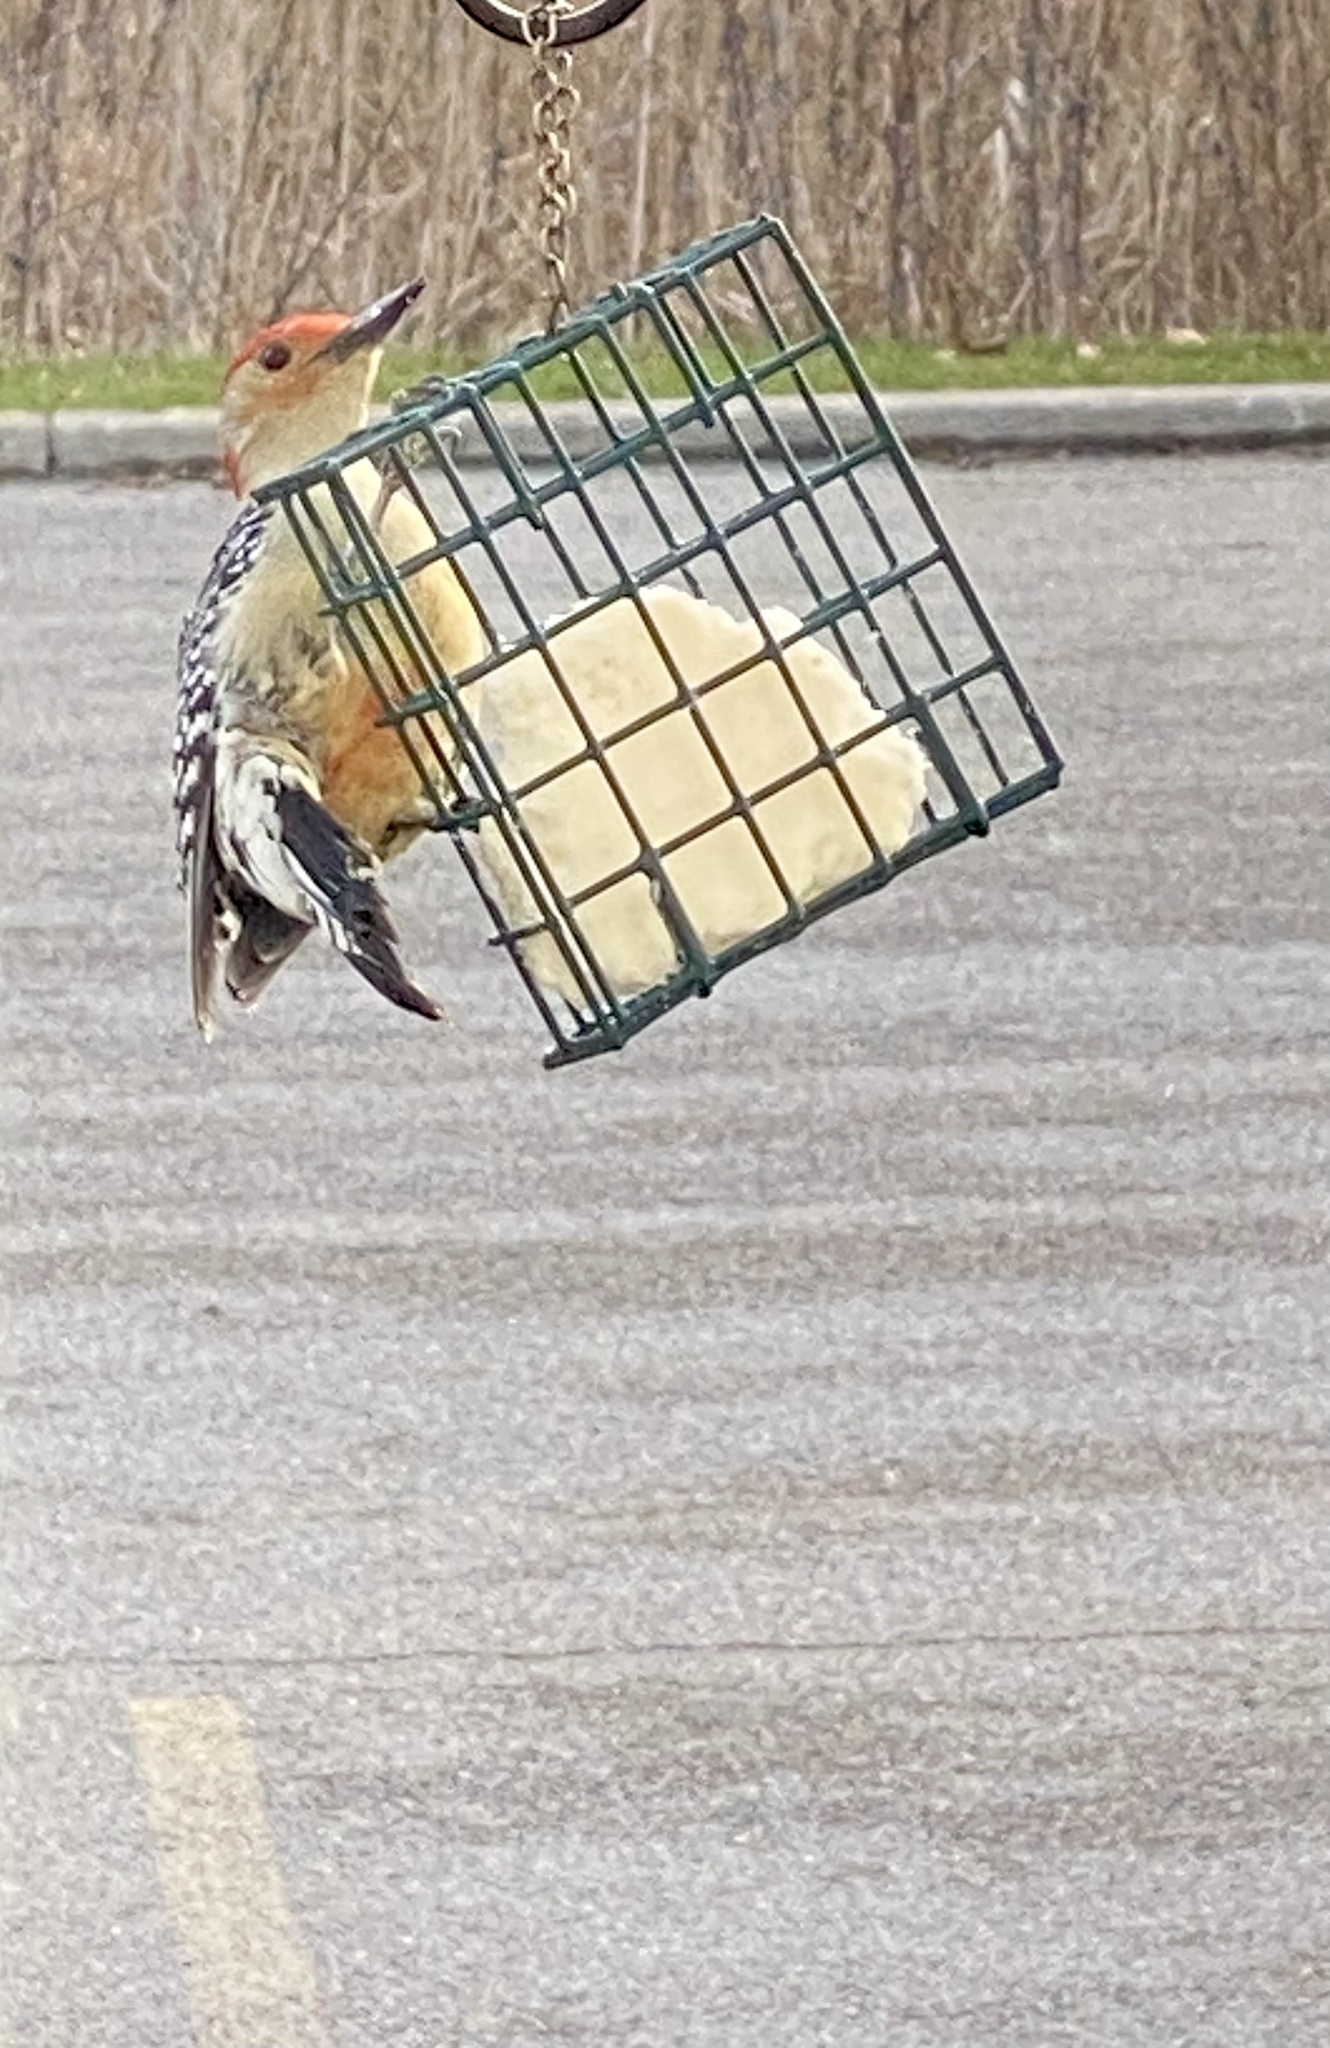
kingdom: Animalia
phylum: Chordata
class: Aves
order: Piciformes
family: Picidae
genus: Melanerpes
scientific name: Melanerpes carolinus
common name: Red-bellied woodpecker
